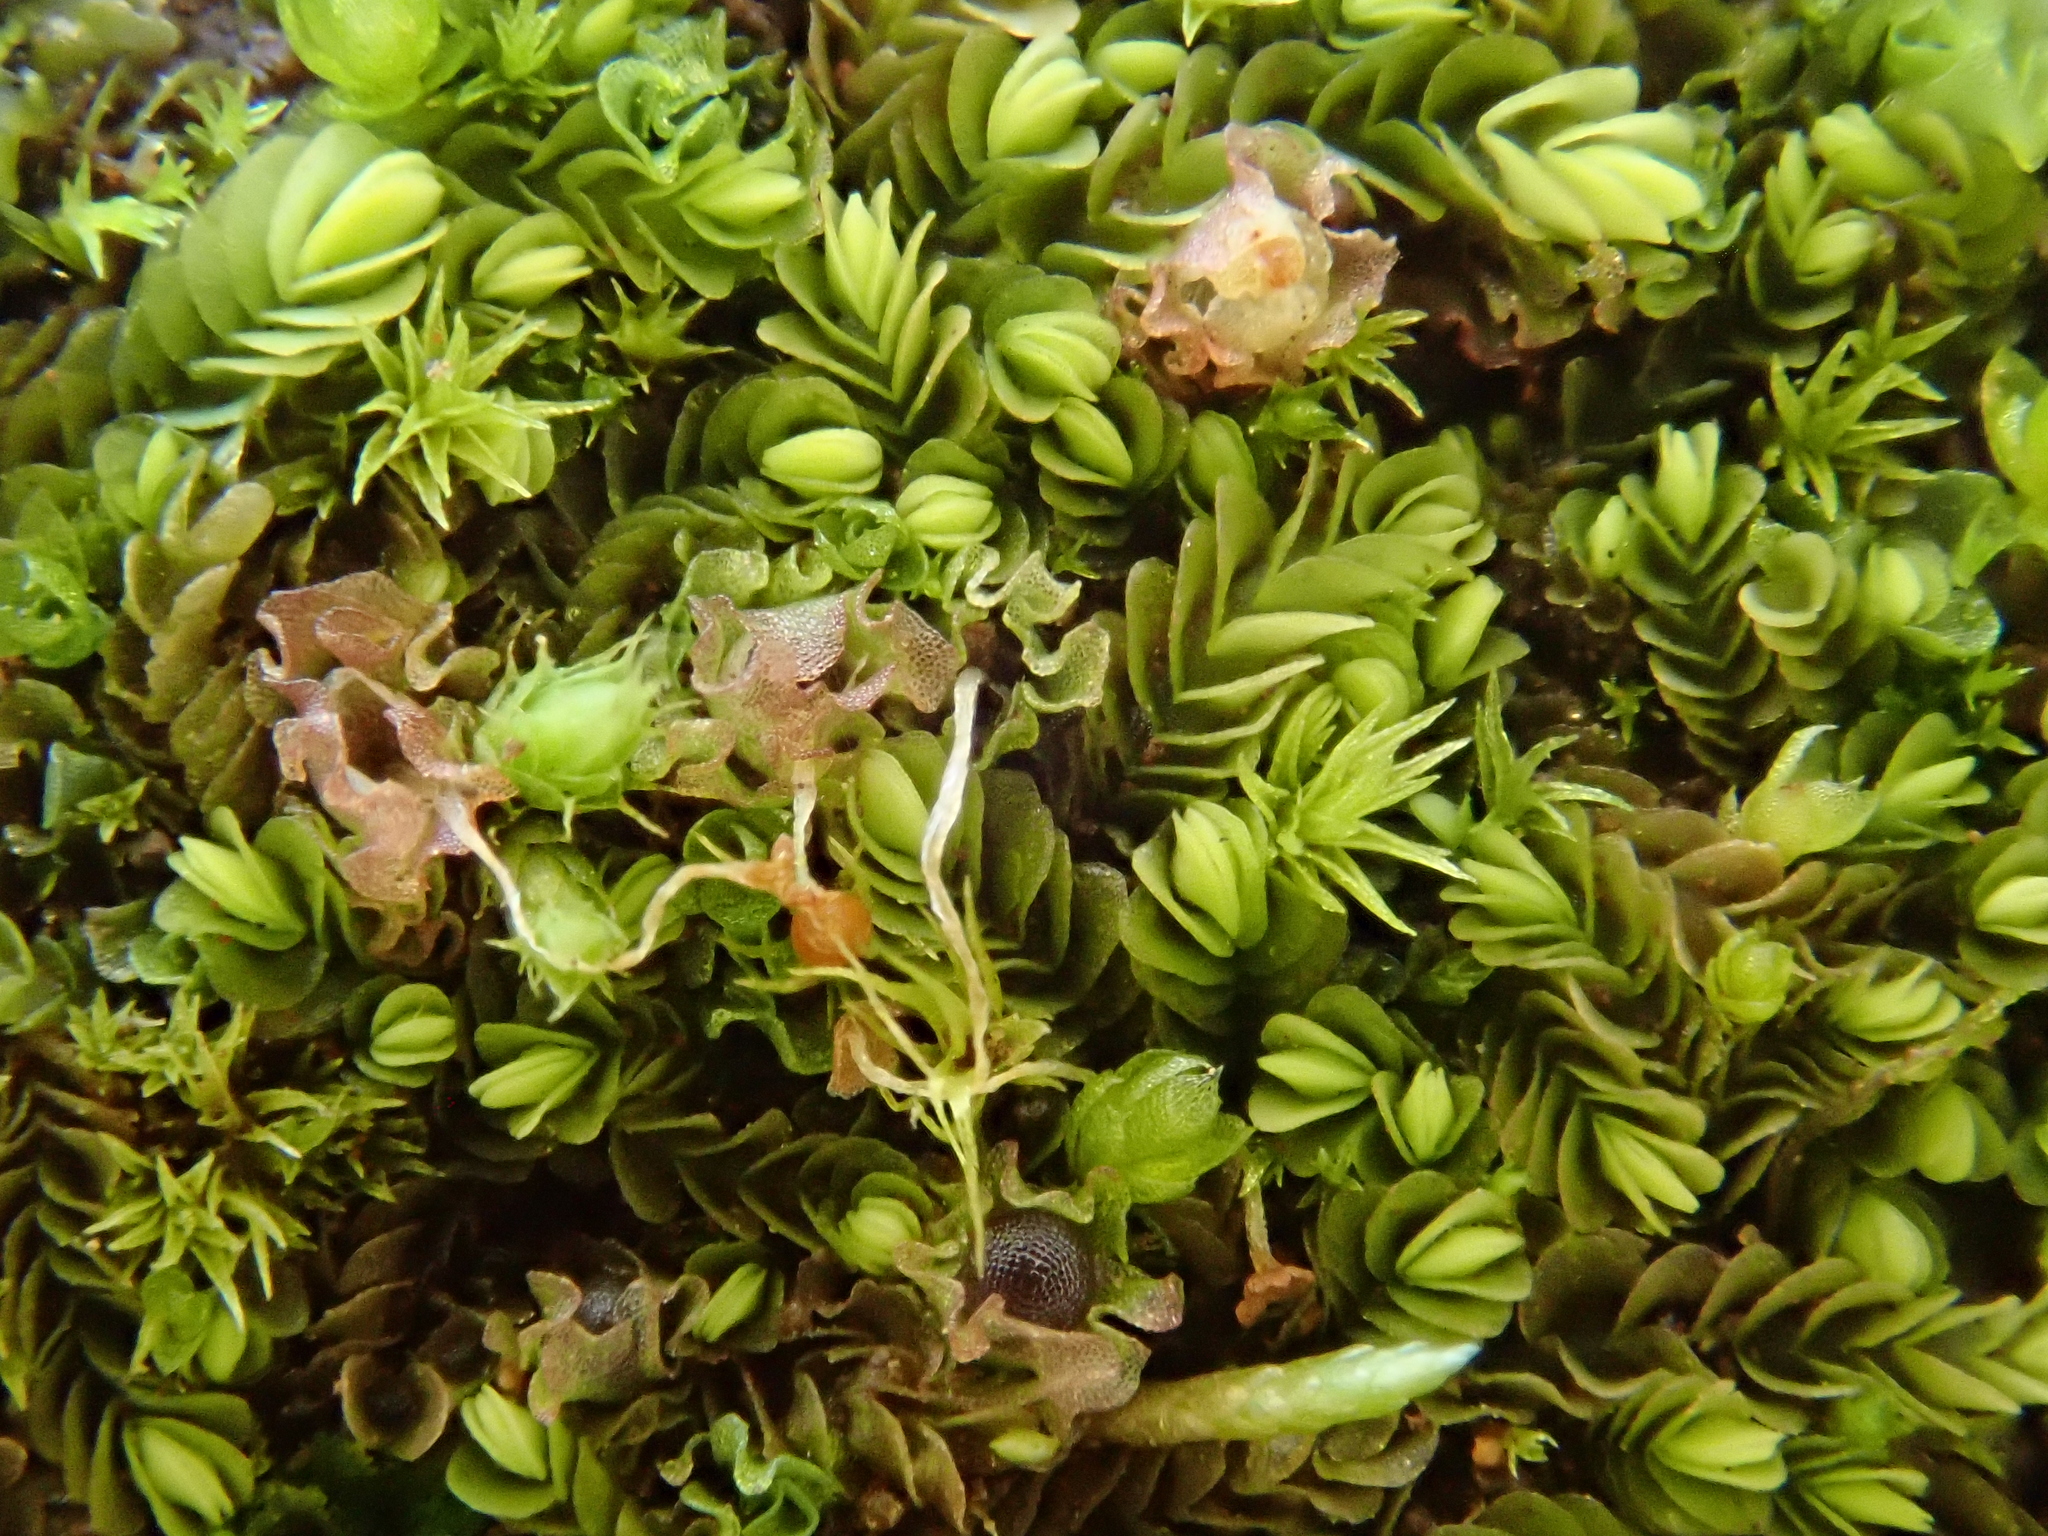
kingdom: Plantae
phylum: Marchantiophyta
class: Jungermanniopsida
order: Jungermanniales
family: Southbyaceae
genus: Gongylanthus
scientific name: Gongylanthus ericetorum
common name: Heath pouchwort
